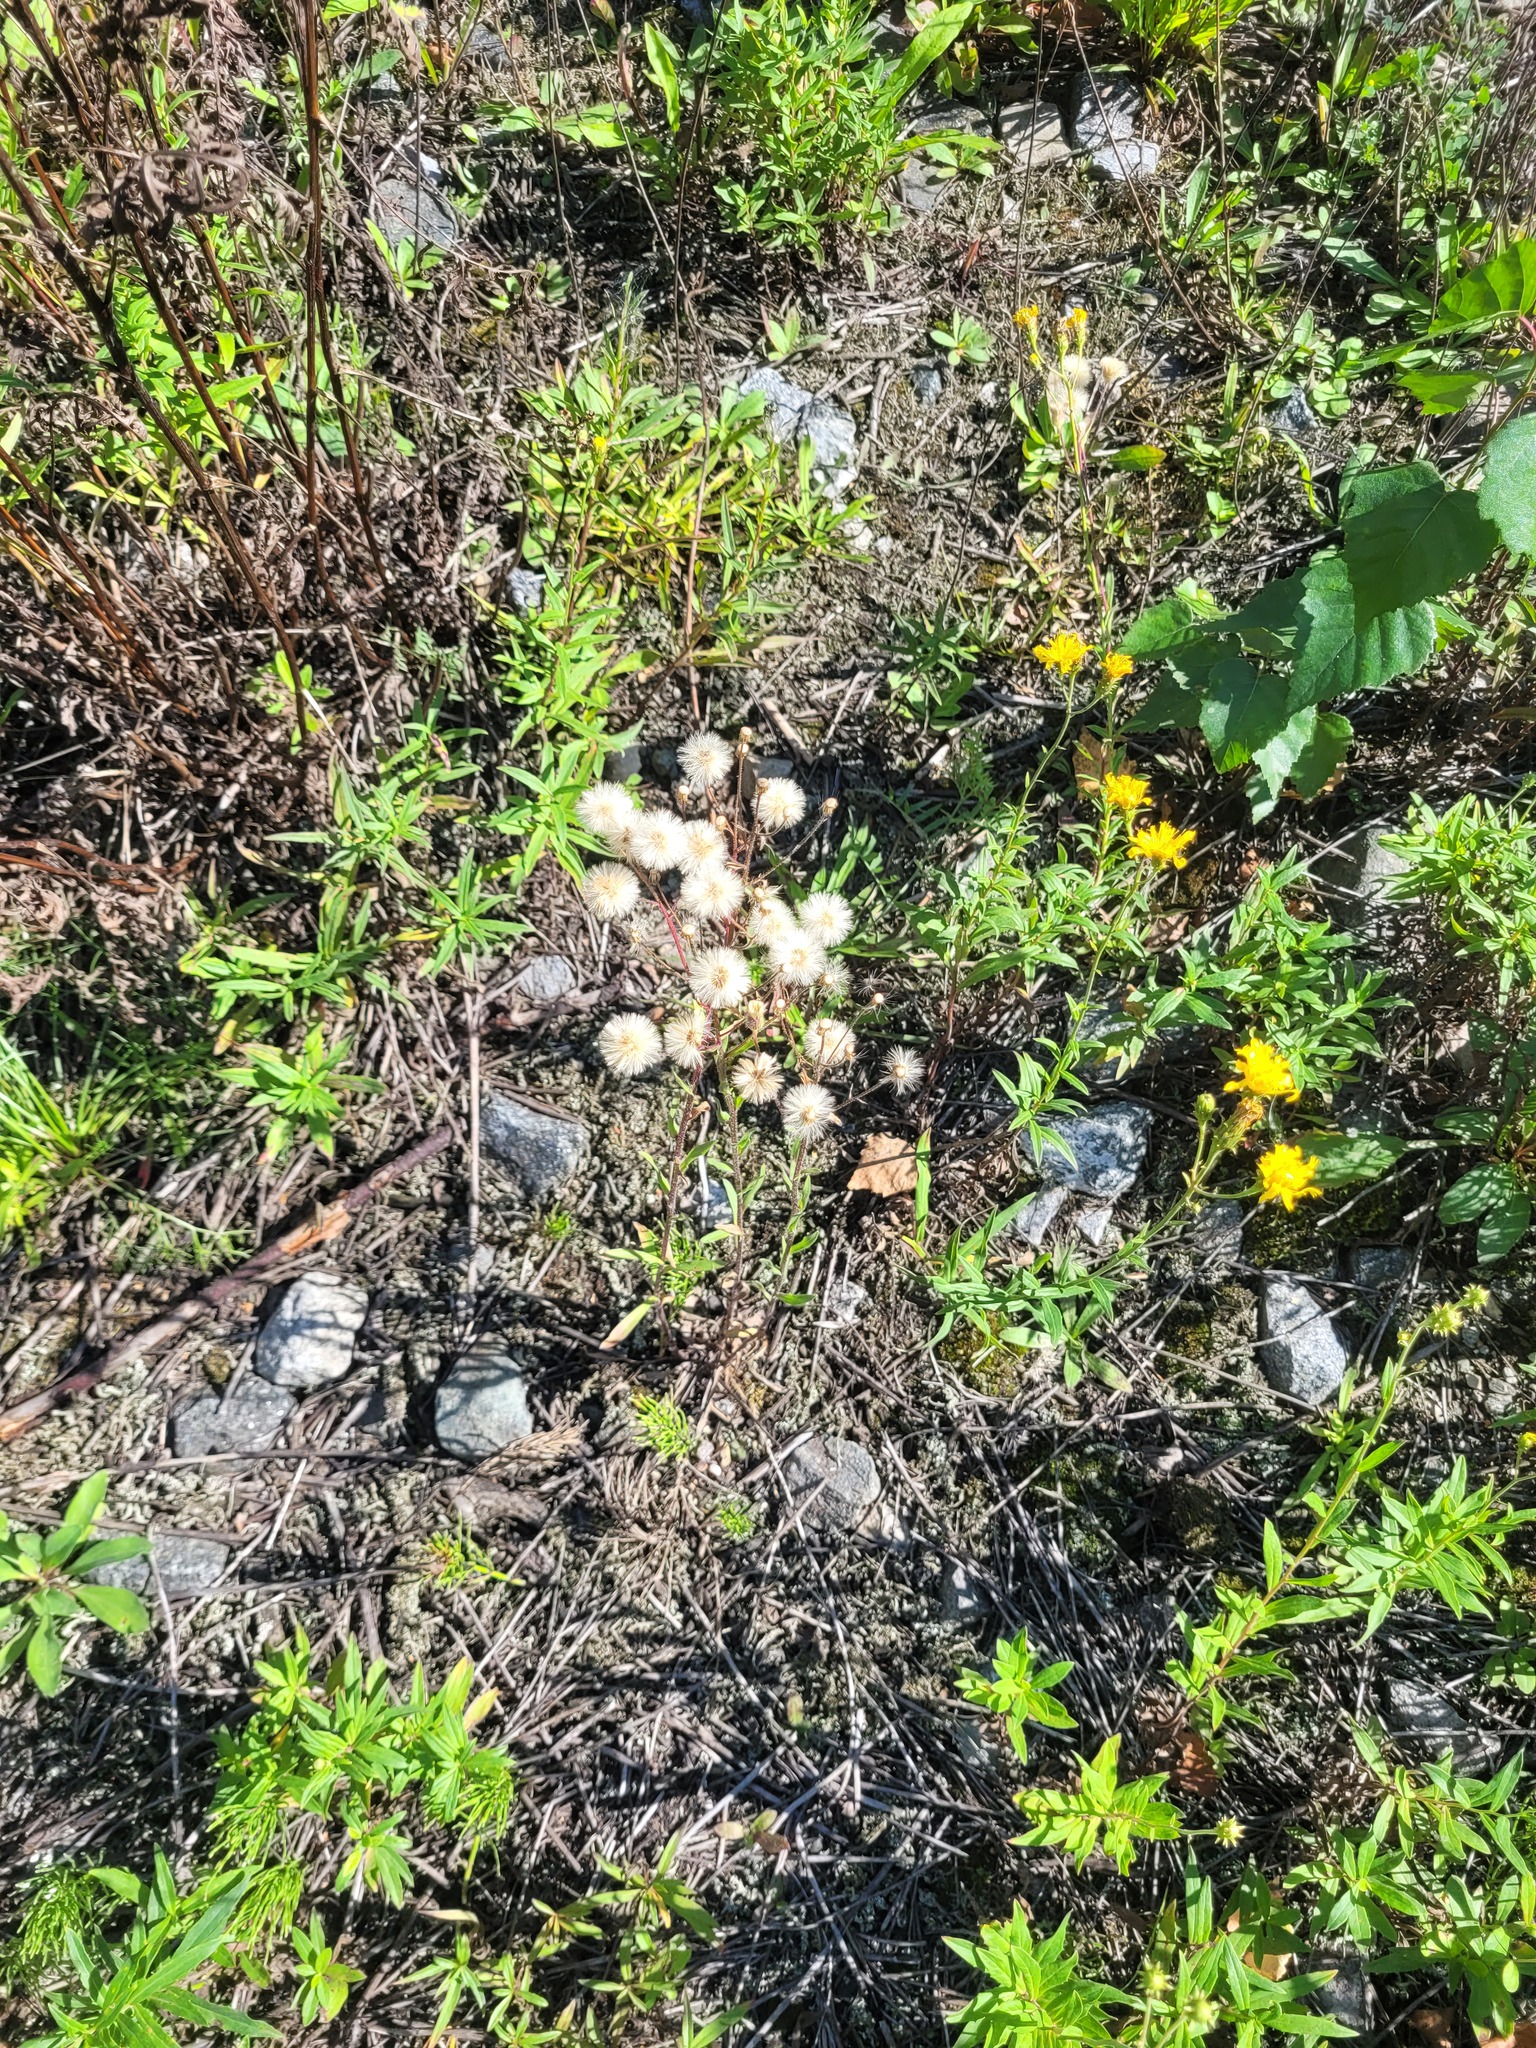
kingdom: Plantae
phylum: Tracheophyta
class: Magnoliopsida
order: Asterales
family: Asteraceae
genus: Erigeron
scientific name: Erigeron acris
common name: Blue fleabane
